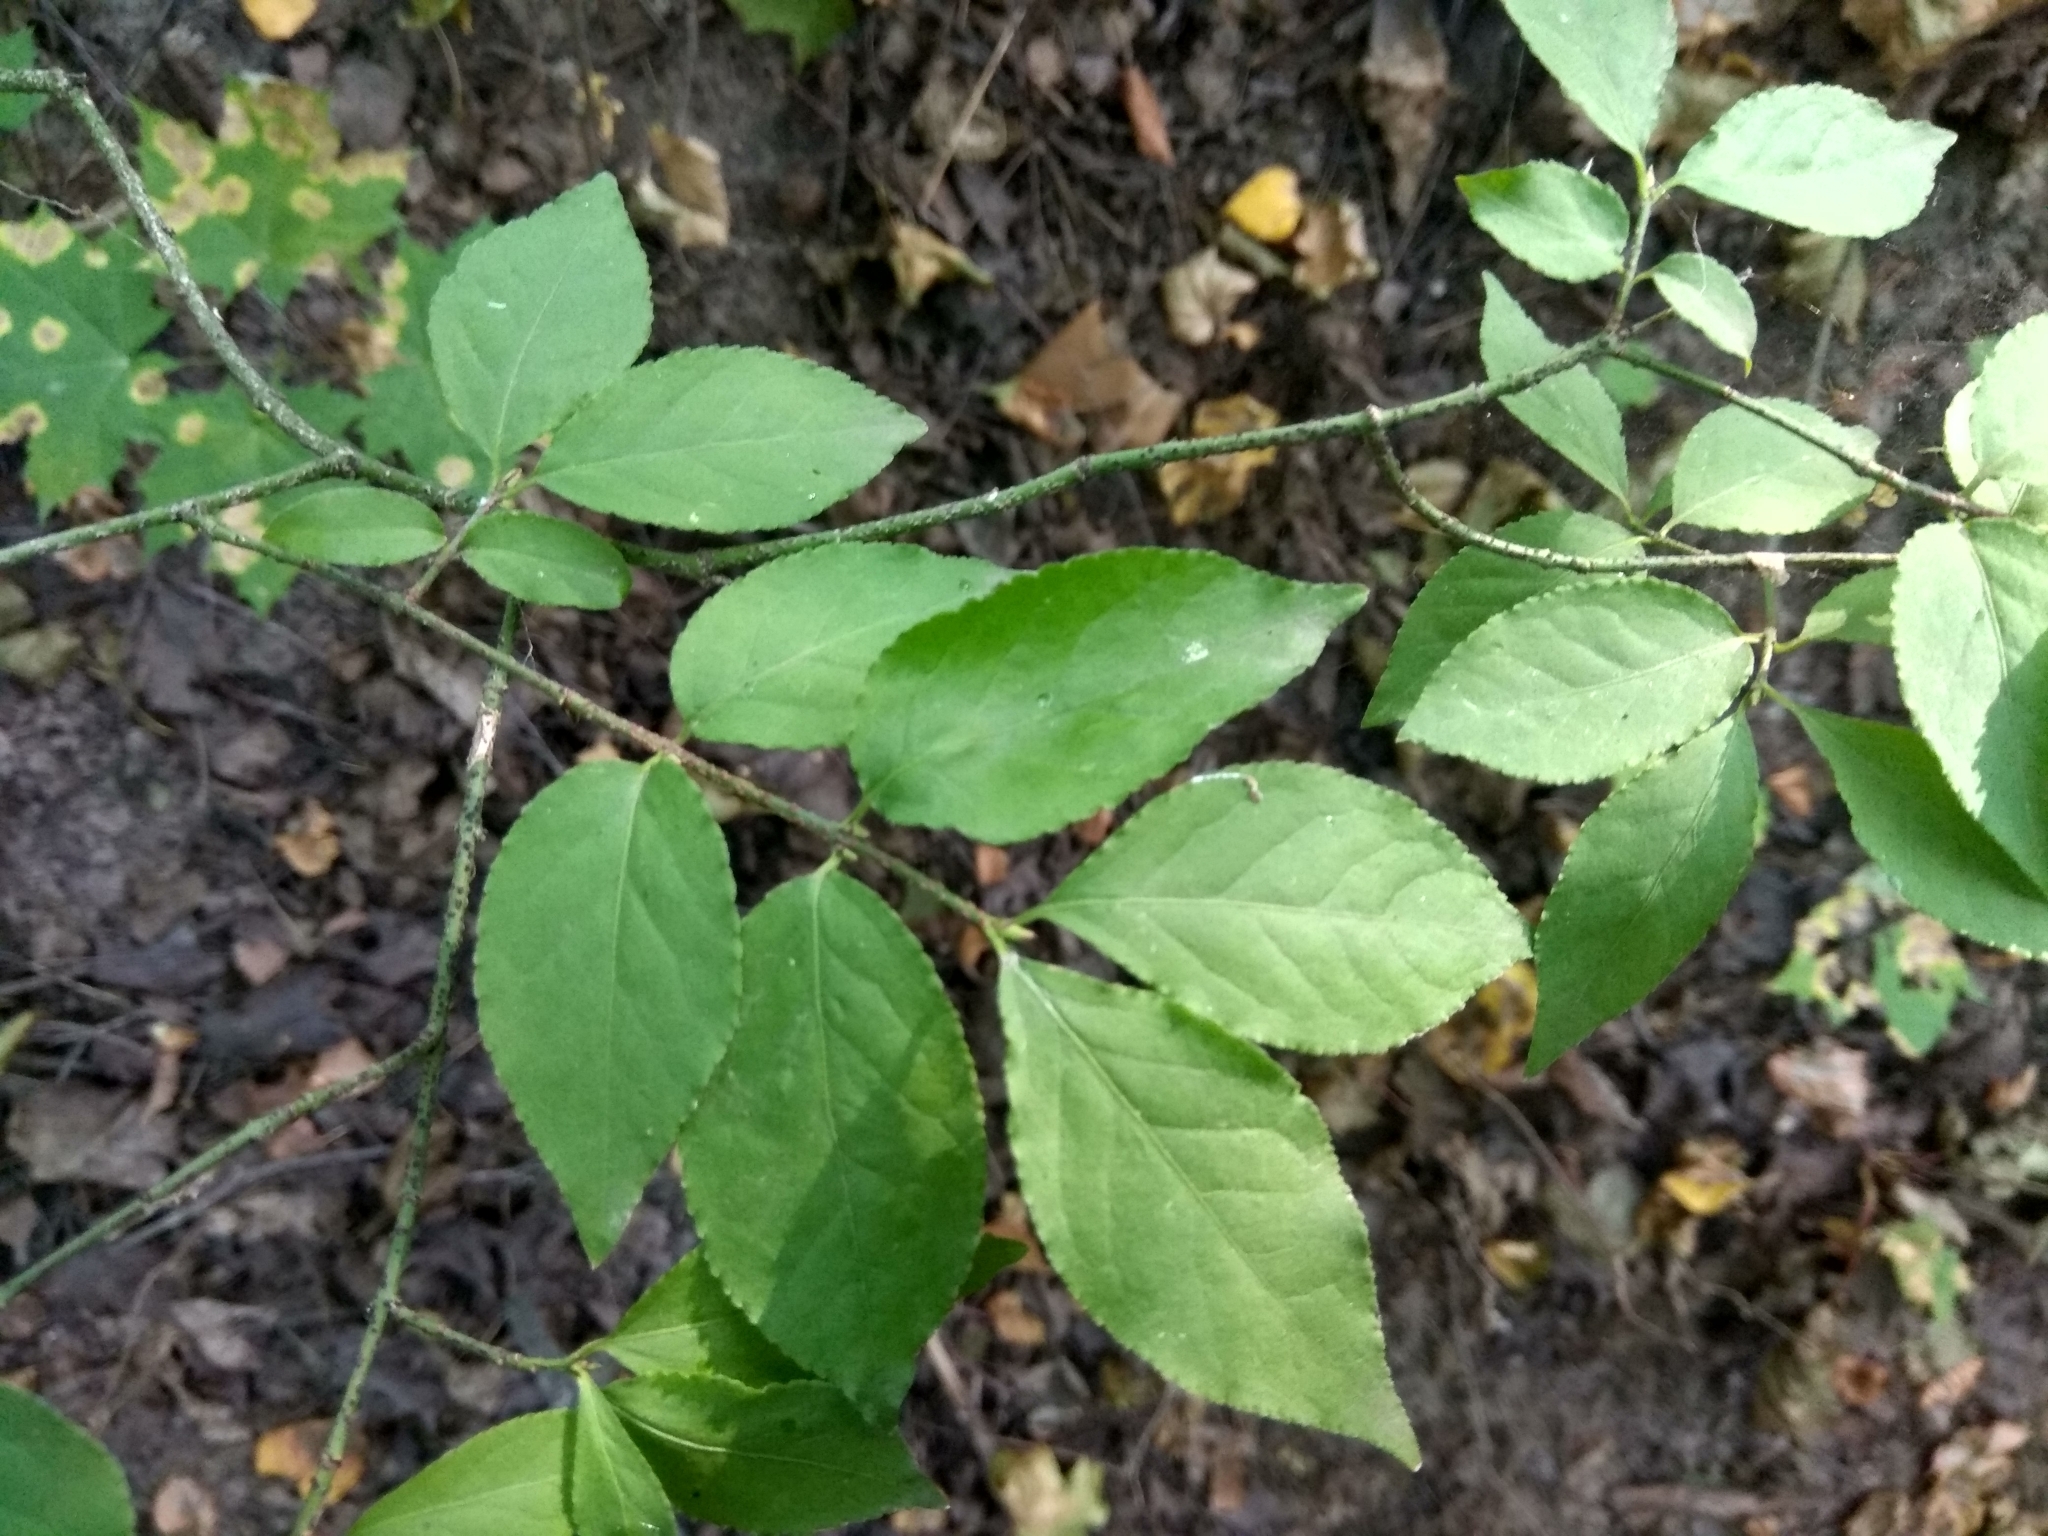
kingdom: Plantae
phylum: Tracheophyta
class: Magnoliopsida
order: Celastrales
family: Celastraceae
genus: Euonymus
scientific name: Euonymus verrucosus
